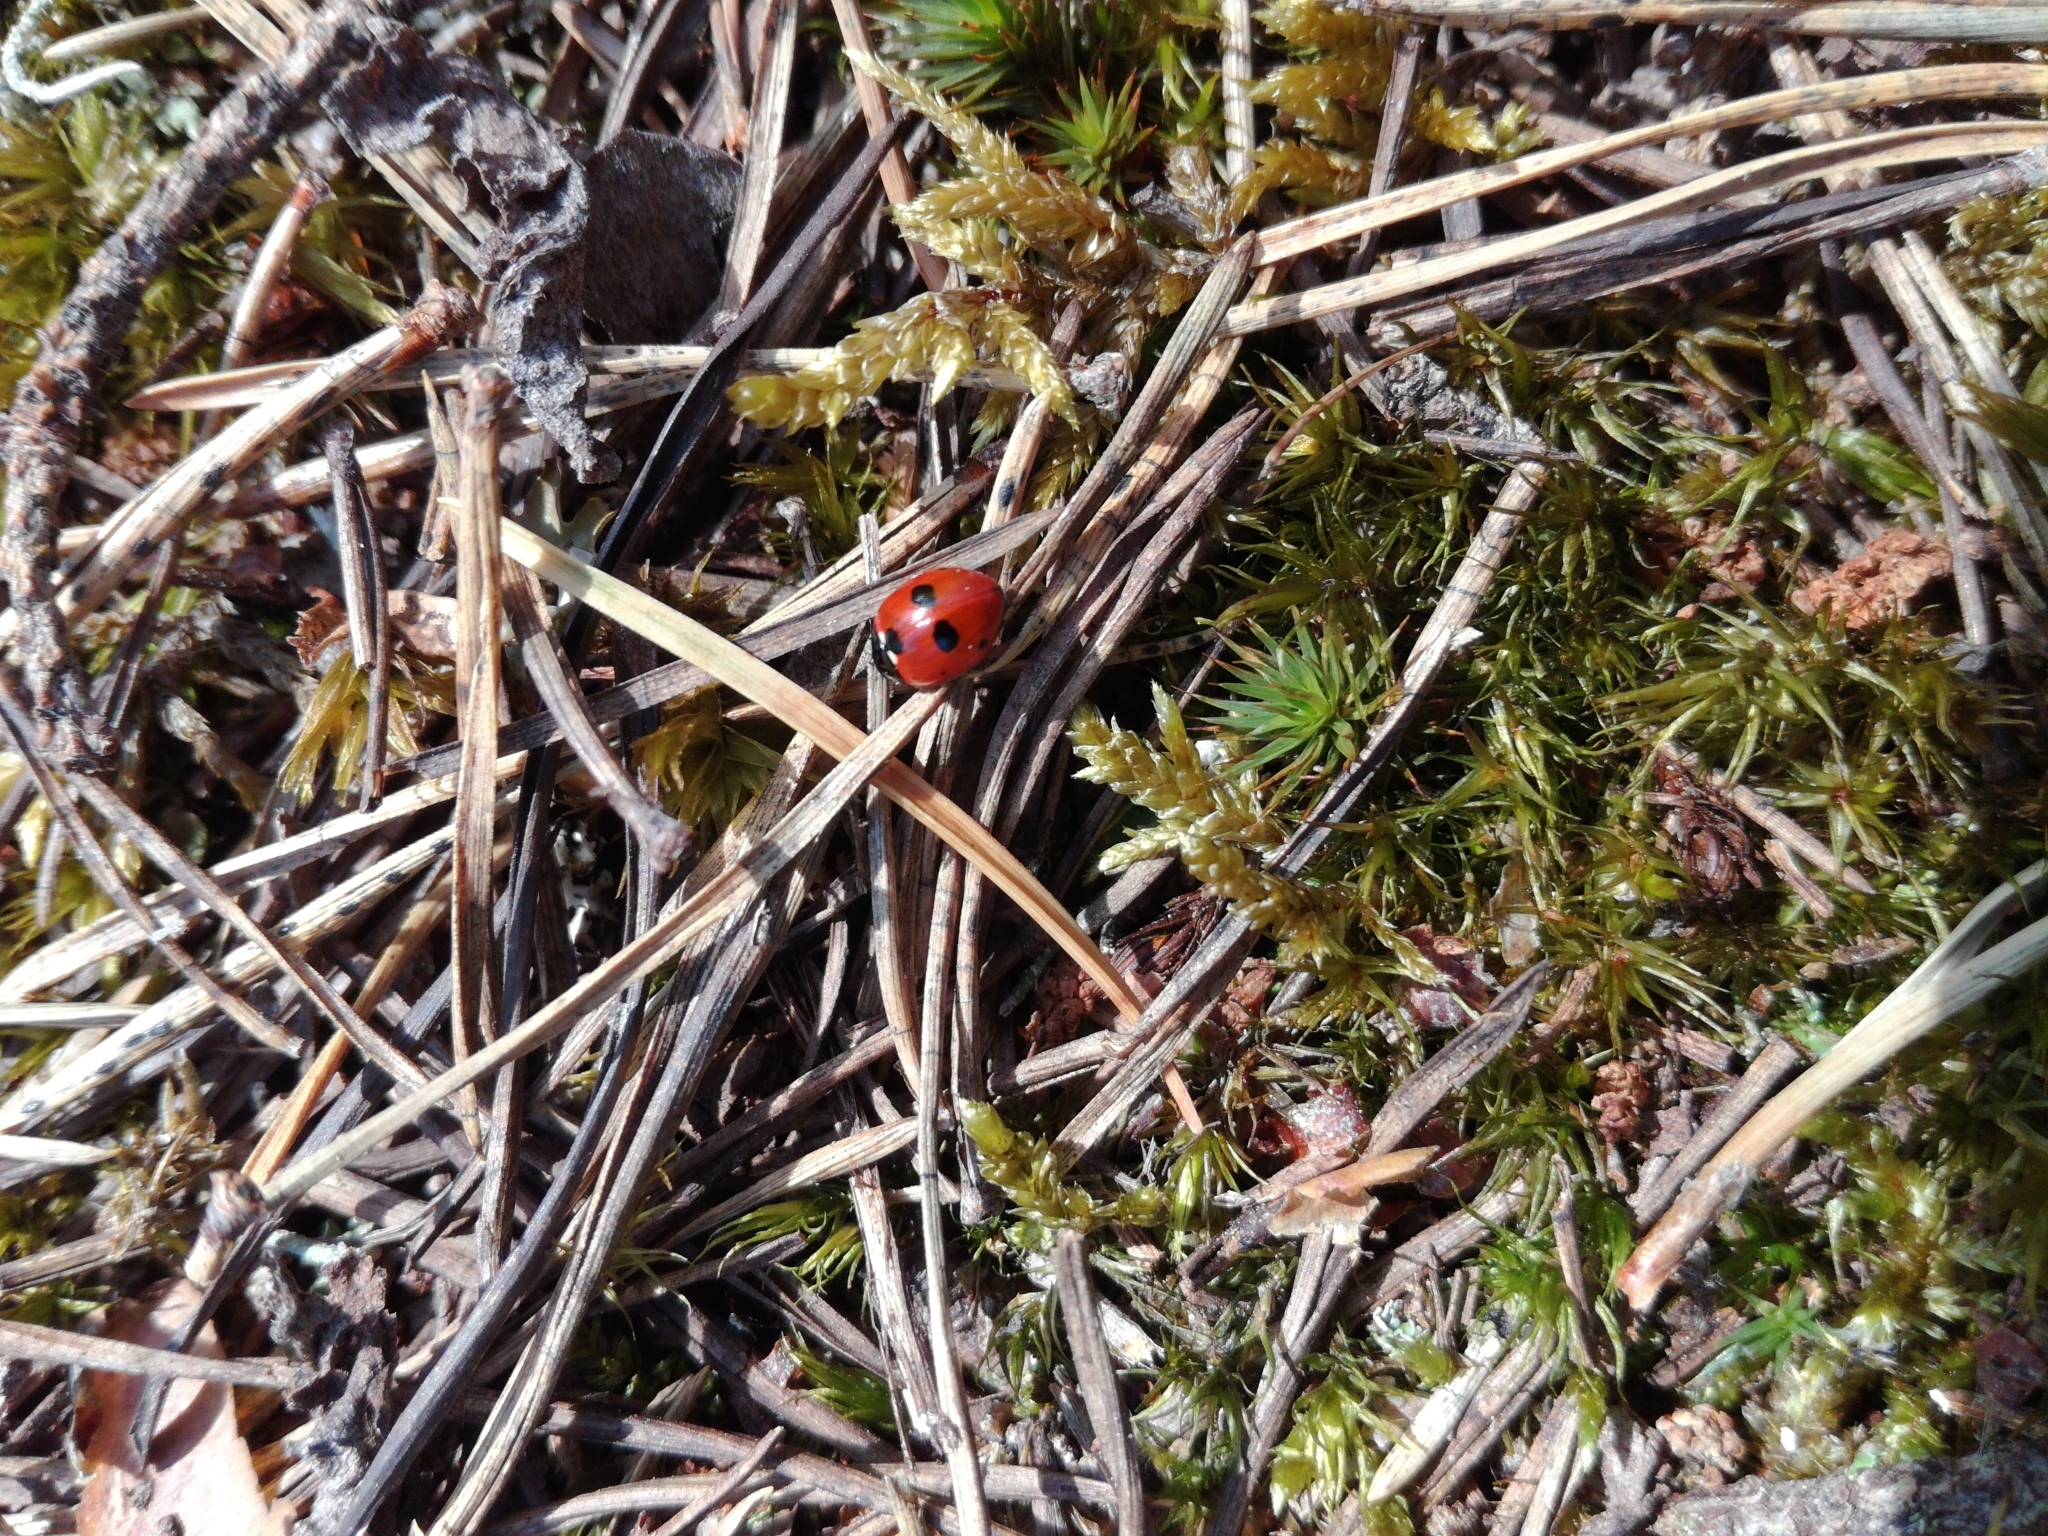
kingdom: Animalia
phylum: Arthropoda
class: Insecta
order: Coleoptera
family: Coccinellidae
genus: Coccinella
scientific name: Coccinella quinquepunctata
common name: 5-spot ladybird
